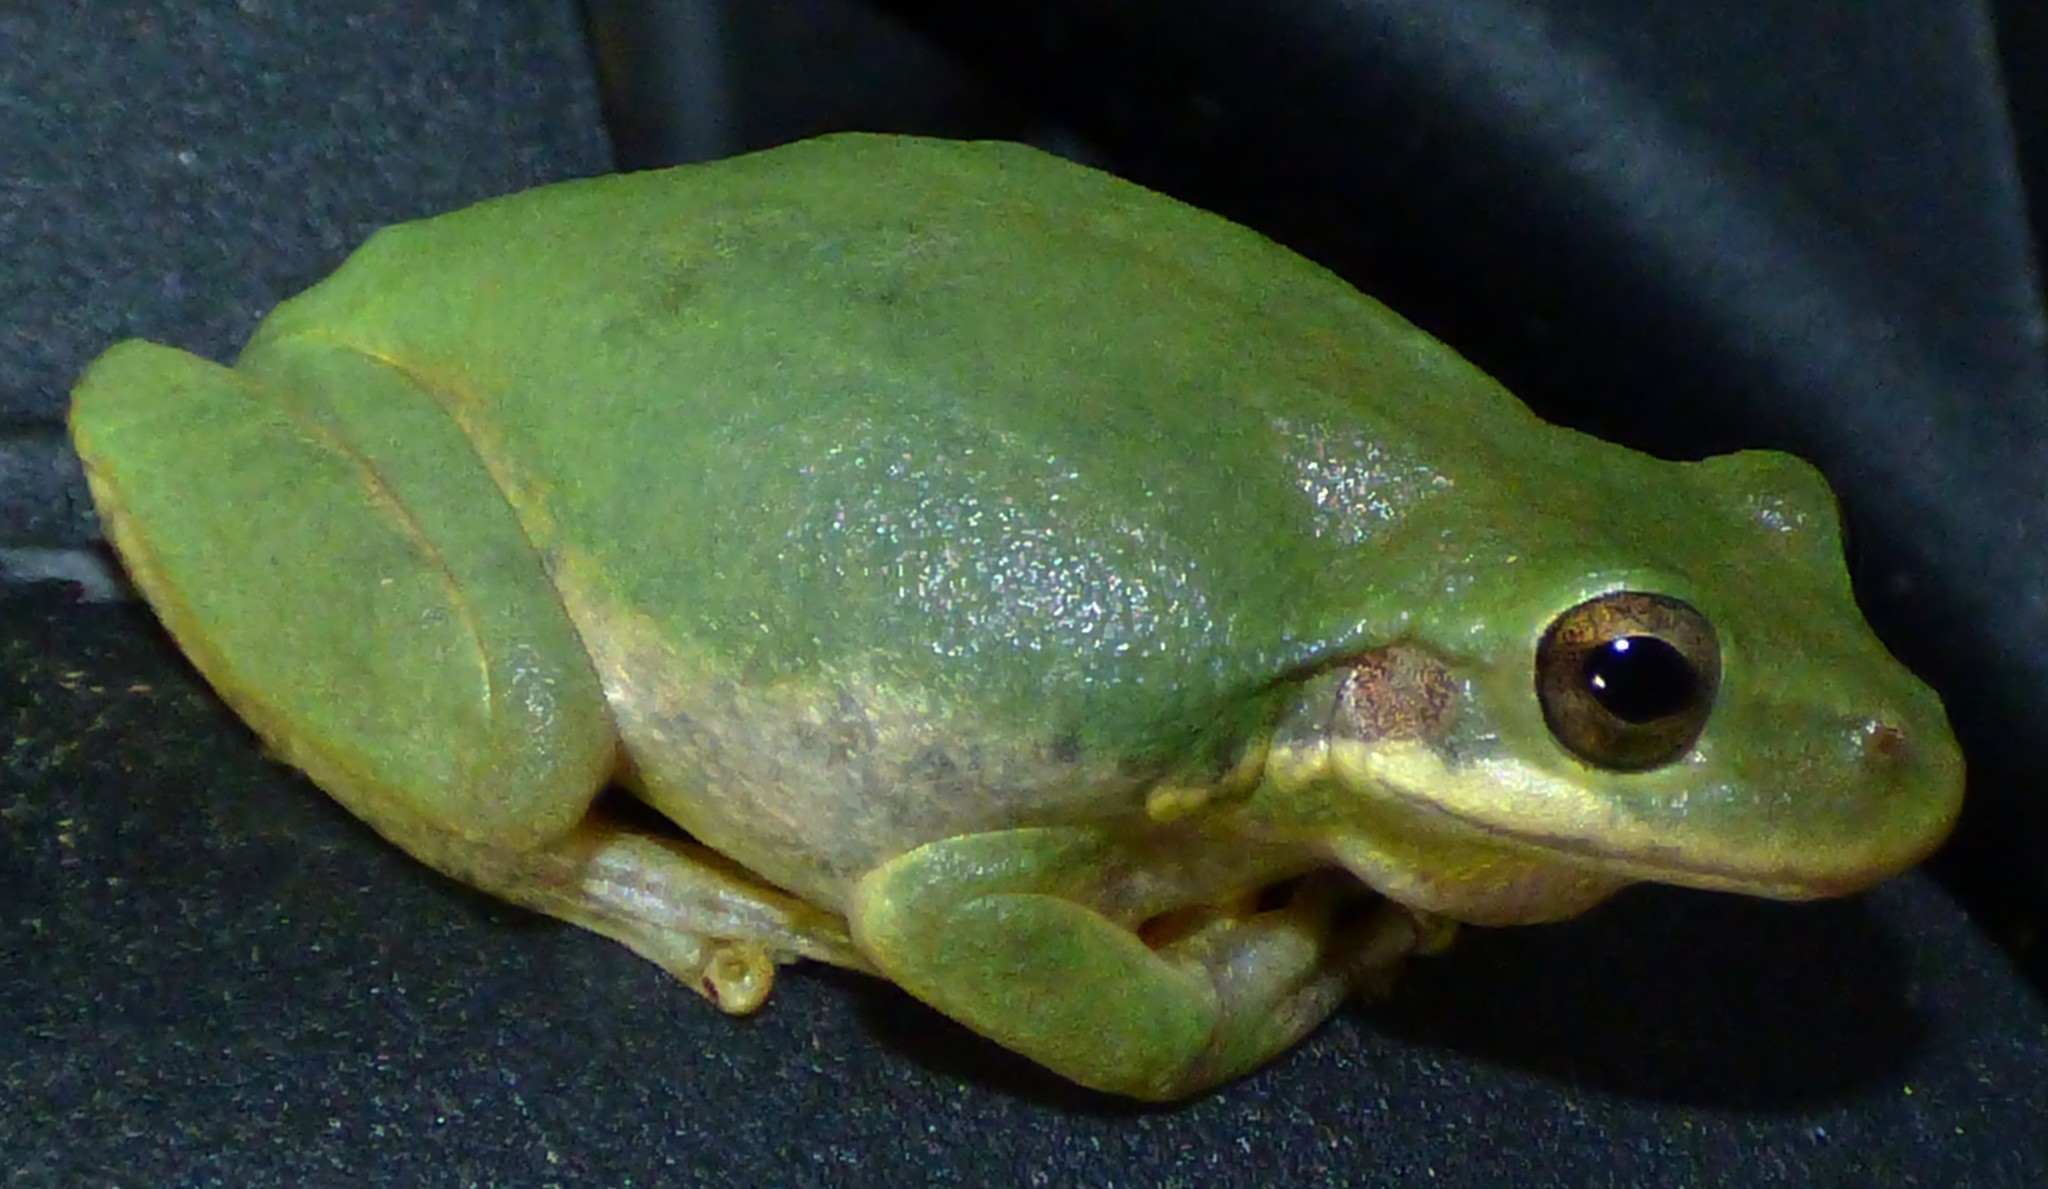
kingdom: Animalia
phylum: Chordata
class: Amphibia
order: Anura
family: Hylidae
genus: Dryophytes
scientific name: Dryophytes squirellus
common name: Squirrel treefrog
